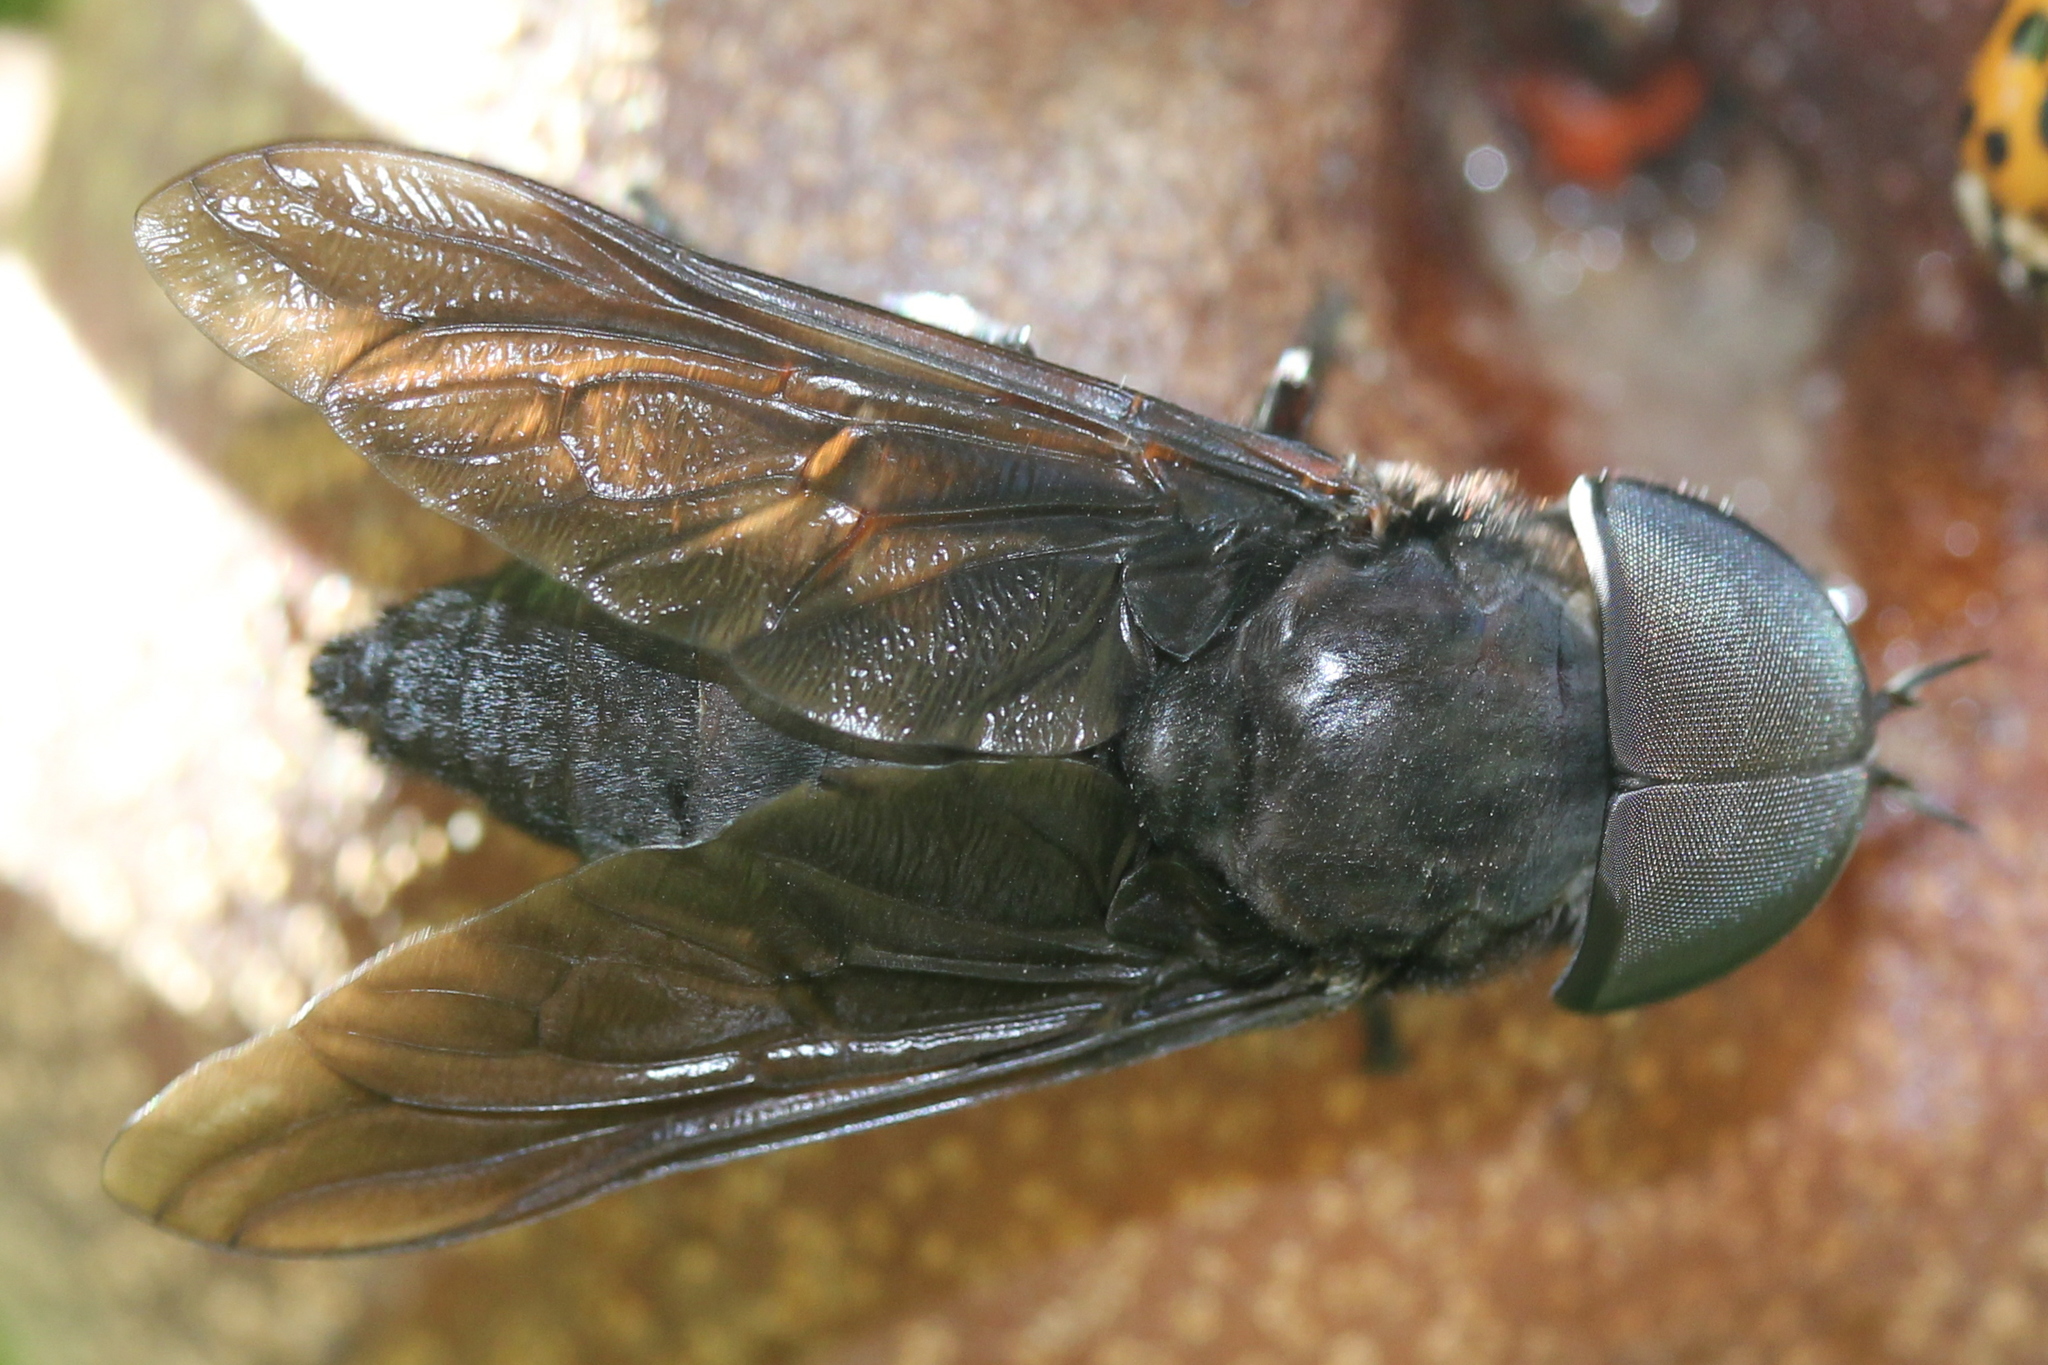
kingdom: Animalia
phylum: Arthropoda
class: Insecta
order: Diptera
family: Tabanidae
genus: Tabanus
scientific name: Tabanus atratus
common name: Black horse fly
